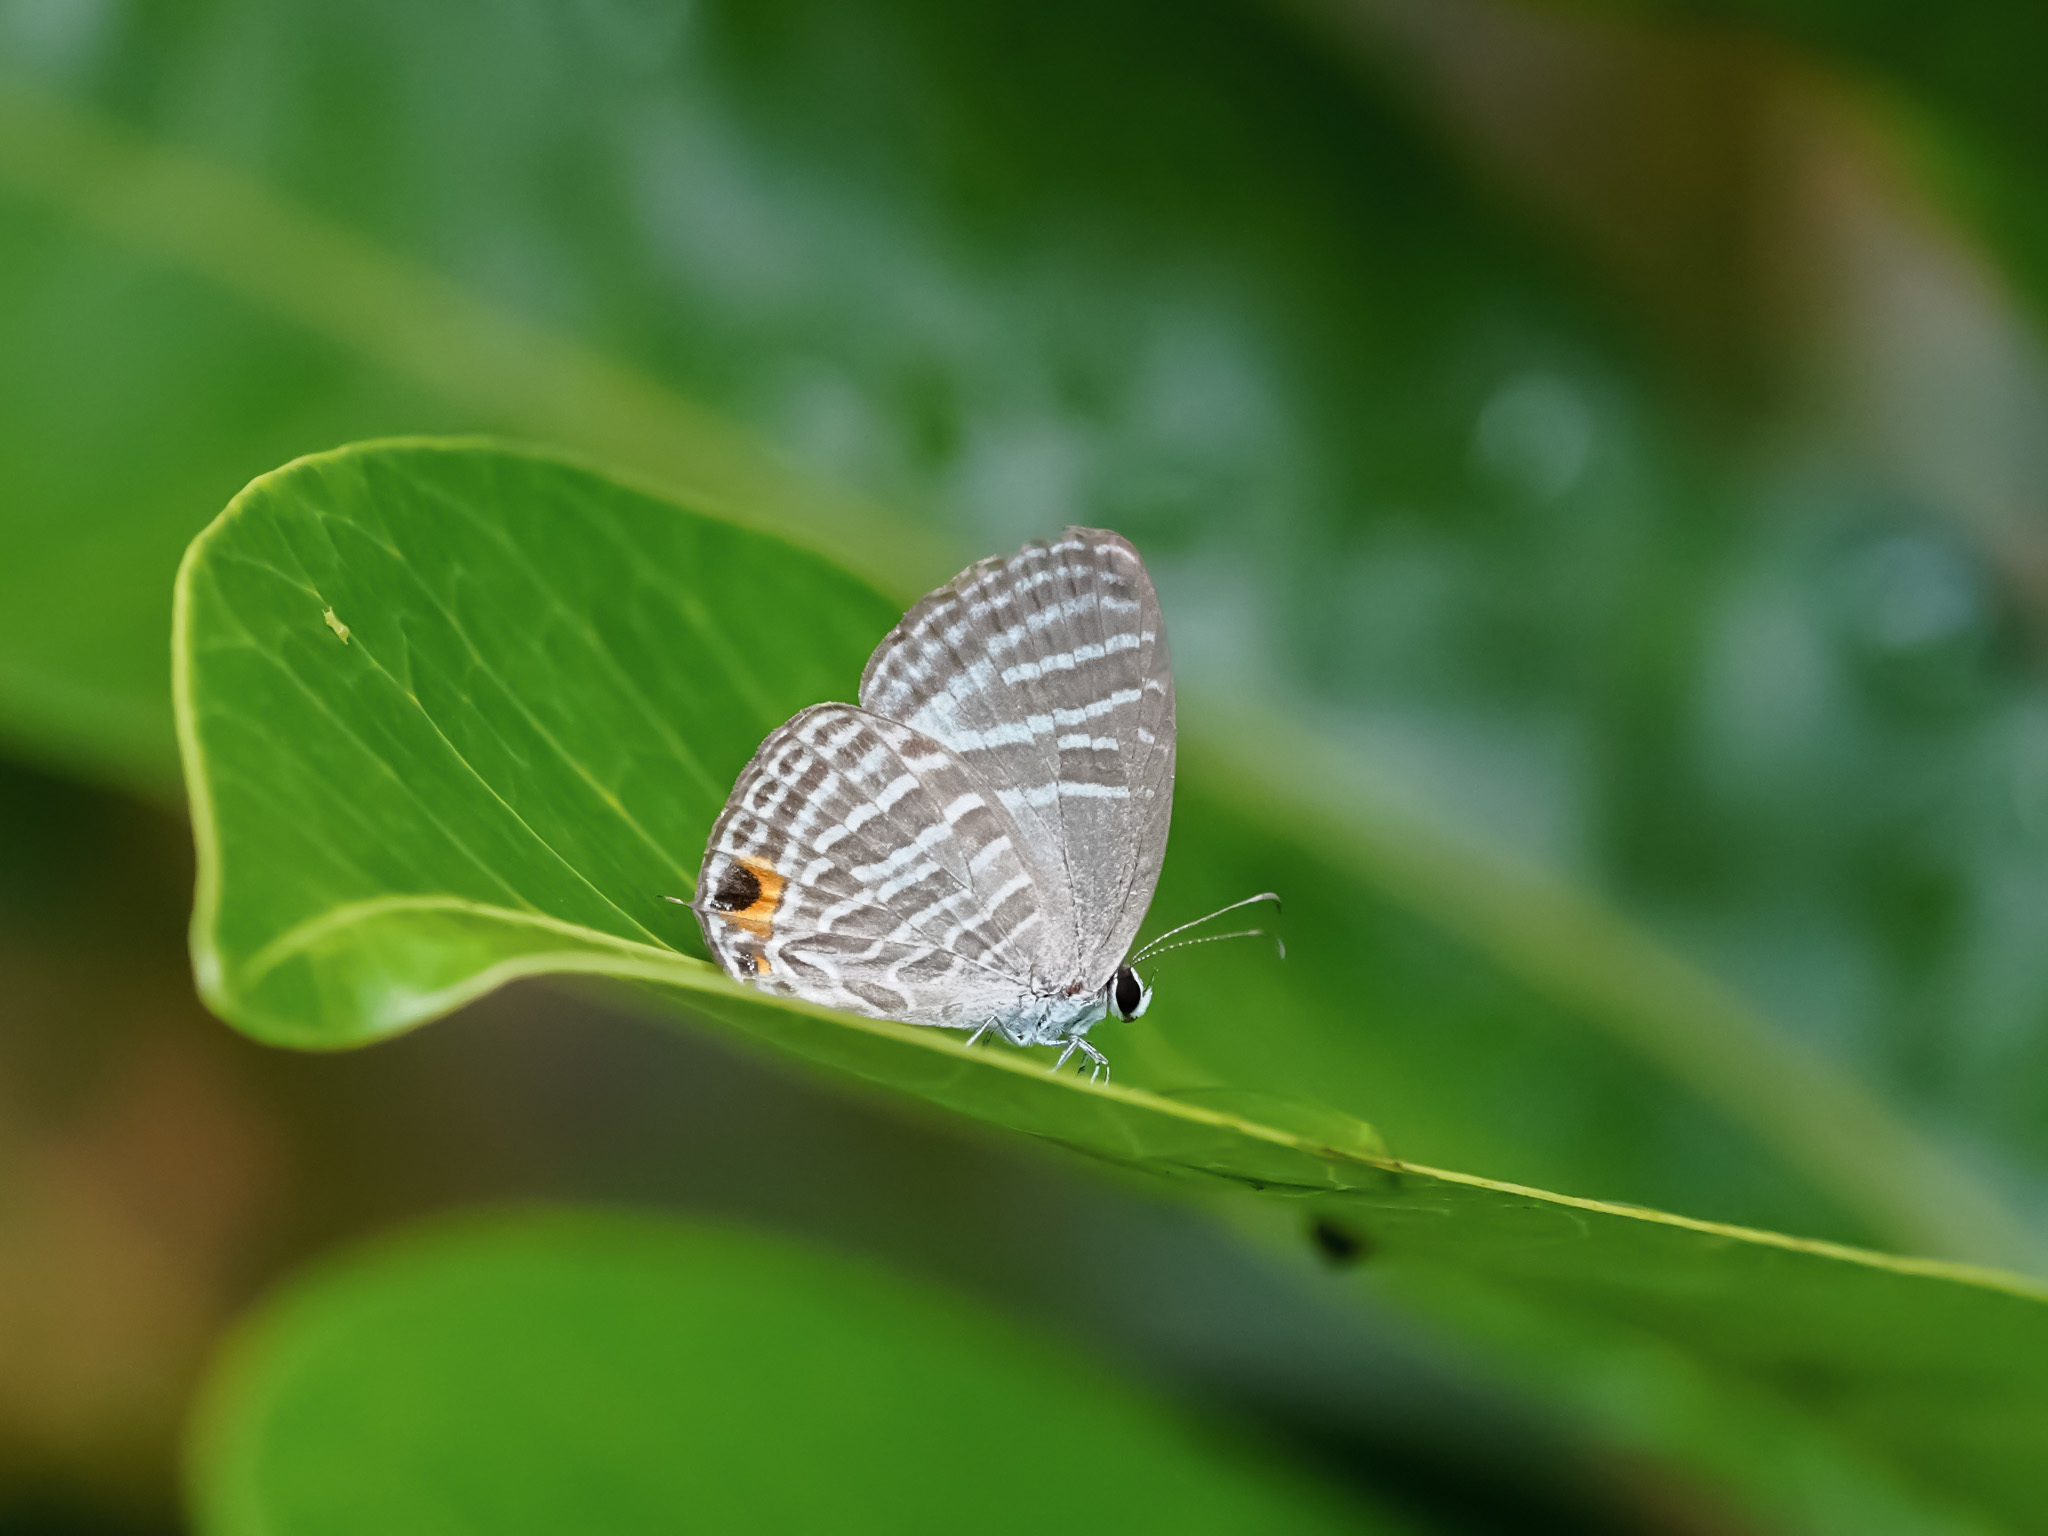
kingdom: Animalia
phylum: Arthropoda
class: Insecta
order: Lepidoptera
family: Lycaenidae
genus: Jamides
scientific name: Jamides celeno
